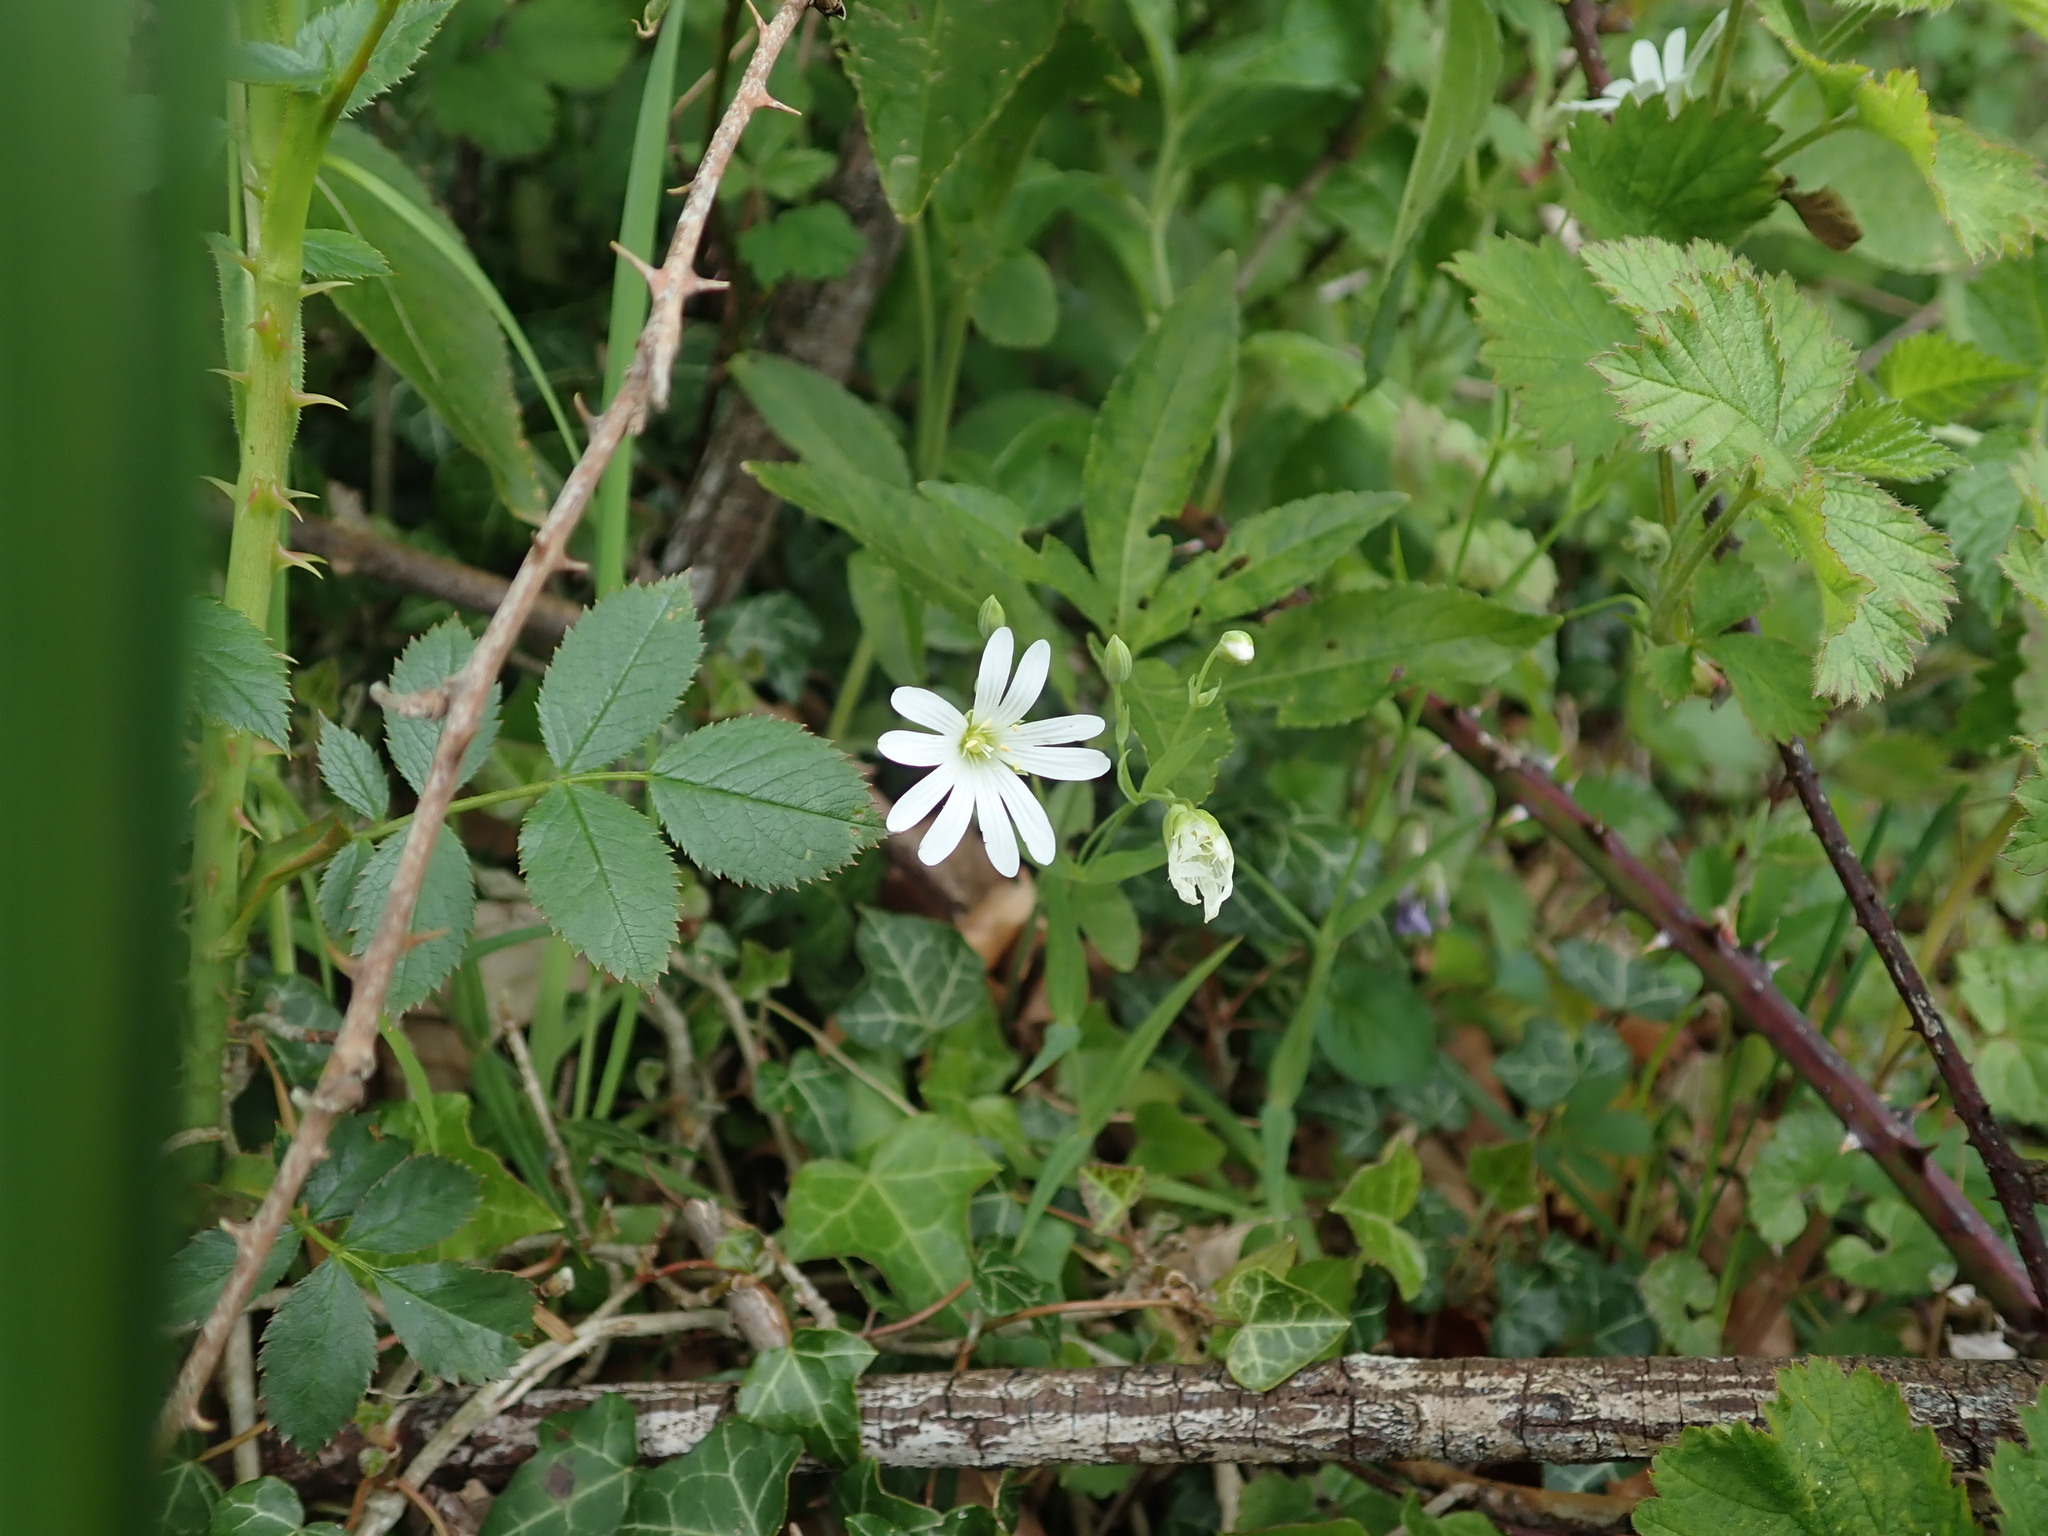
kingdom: Plantae
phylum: Tracheophyta
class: Magnoliopsida
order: Caryophyllales
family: Caryophyllaceae
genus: Rabelera
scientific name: Rabelera holostea
